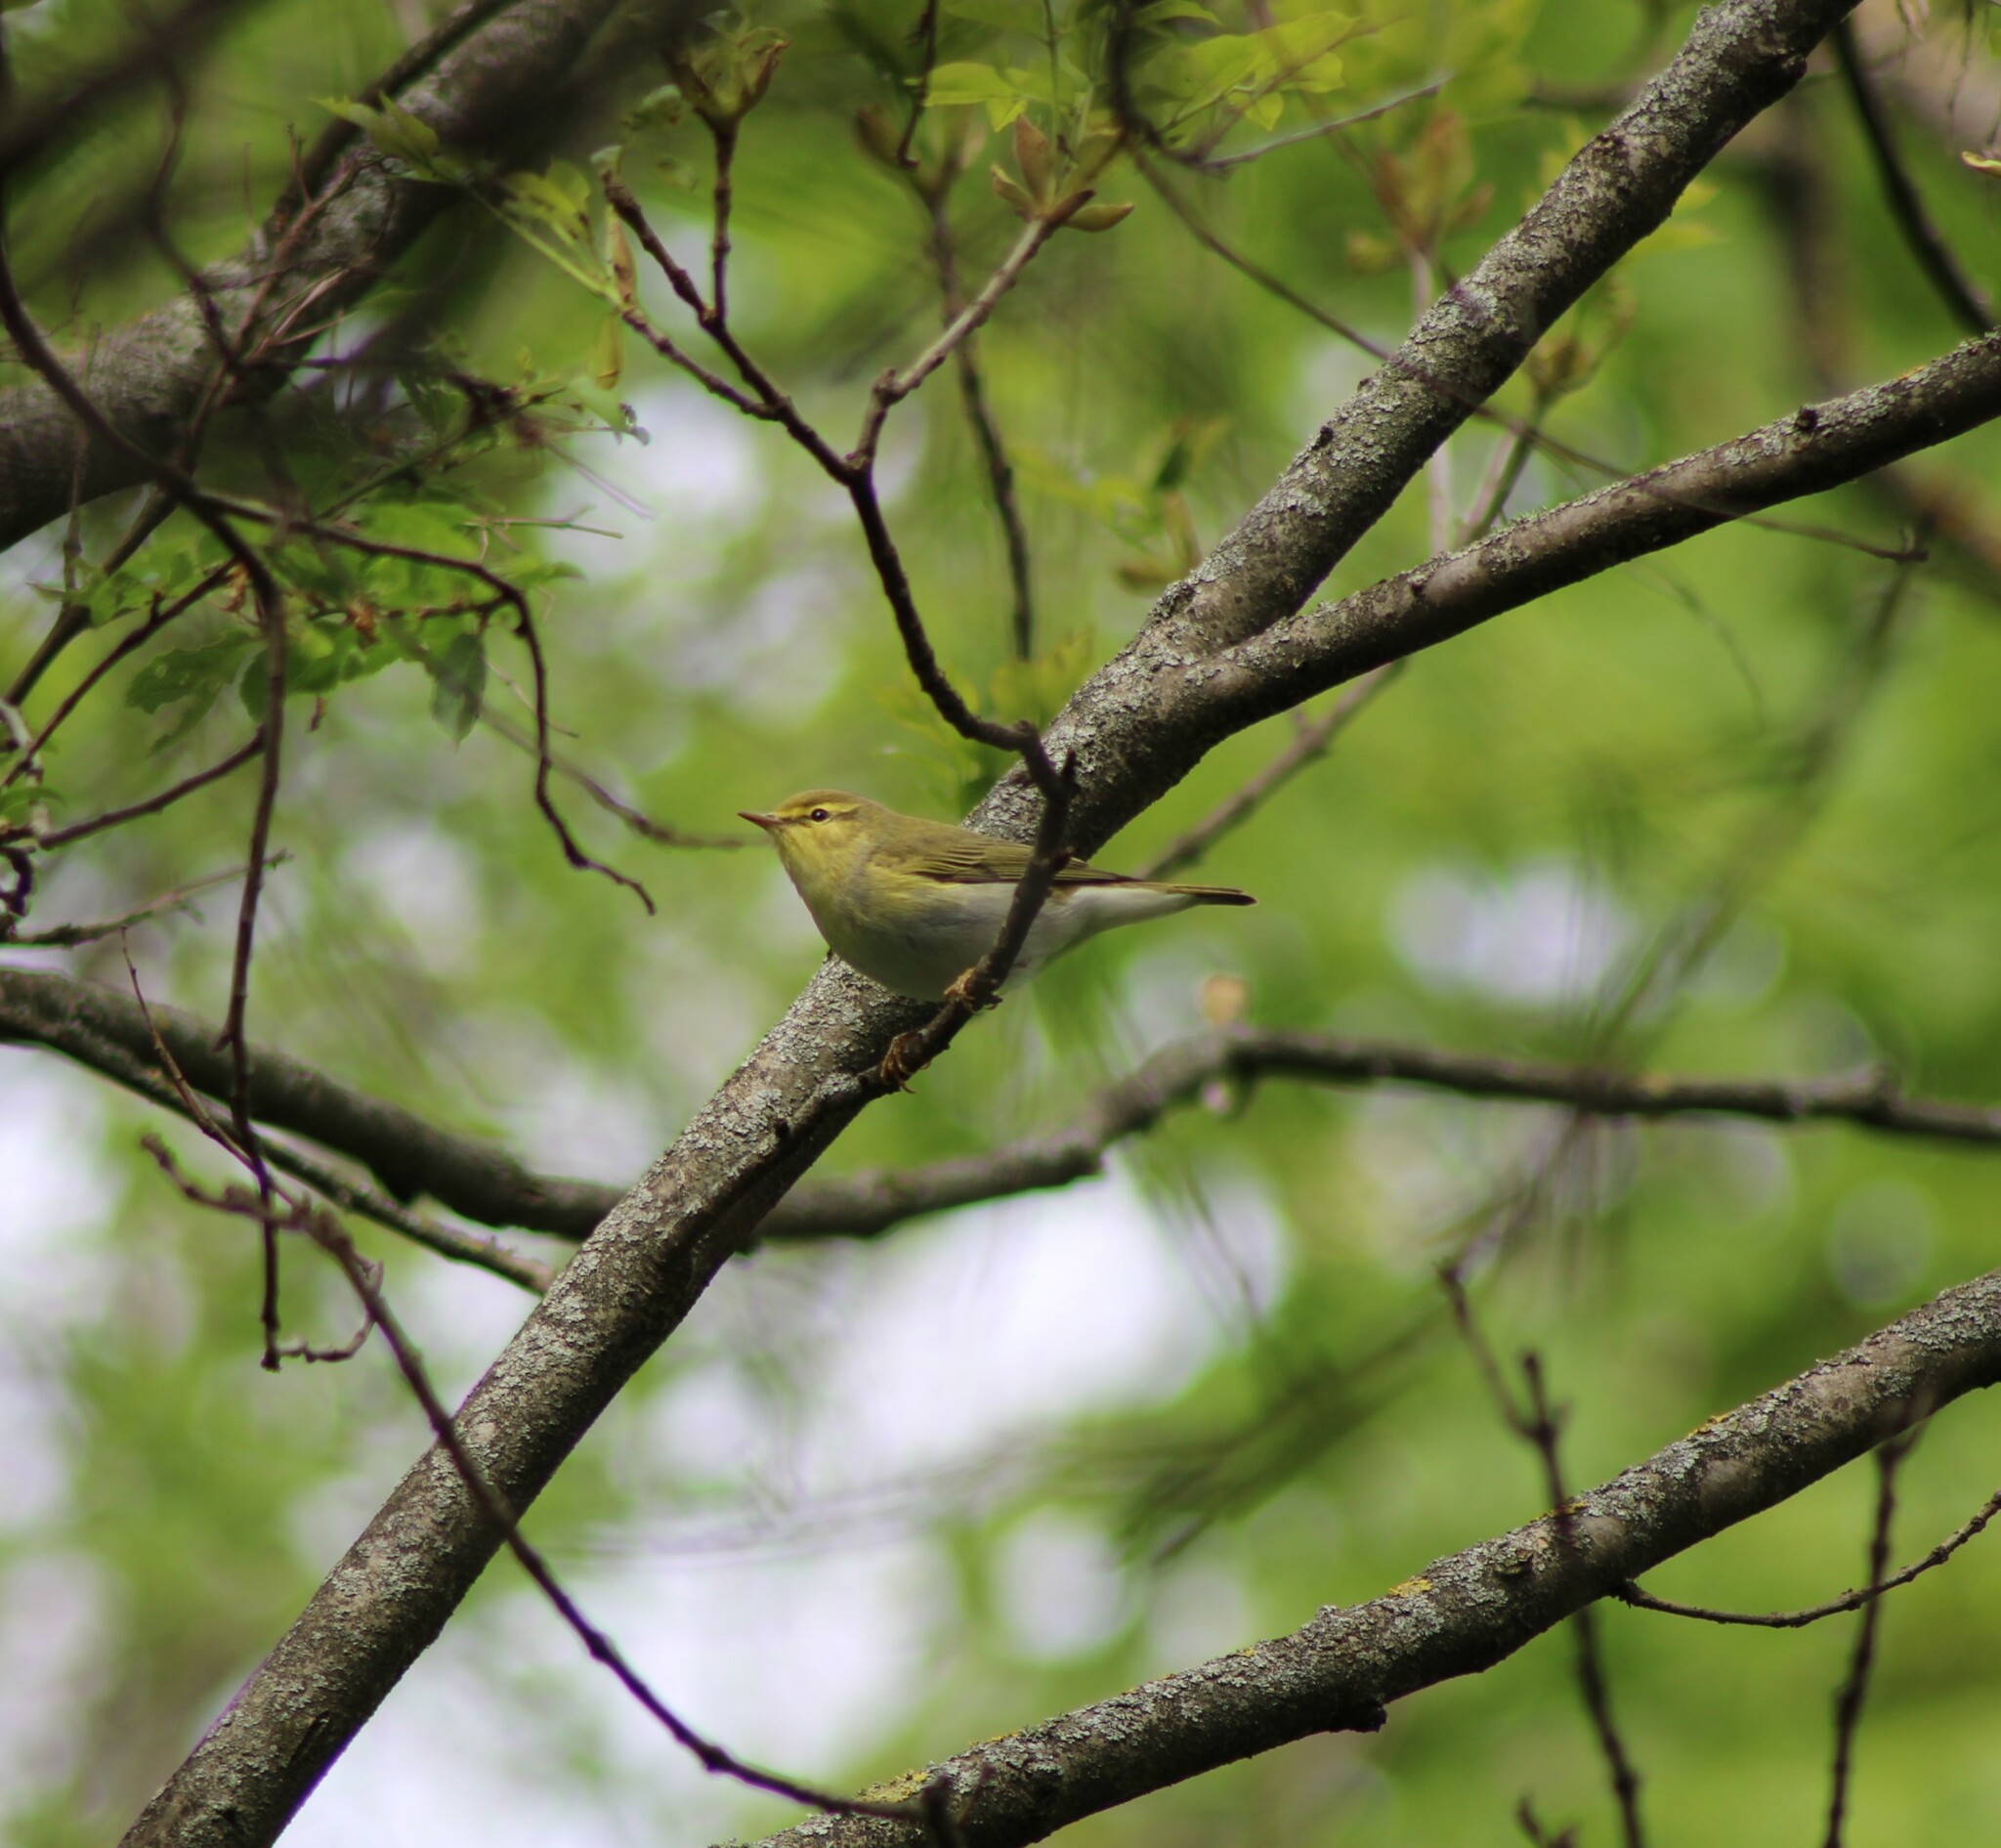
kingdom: Animalia
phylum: Chordata
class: Aves
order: Passeriformes
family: Phylloscopidae
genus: Phylloscopus
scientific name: Phylloscopus trochilus
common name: Willow warbler
